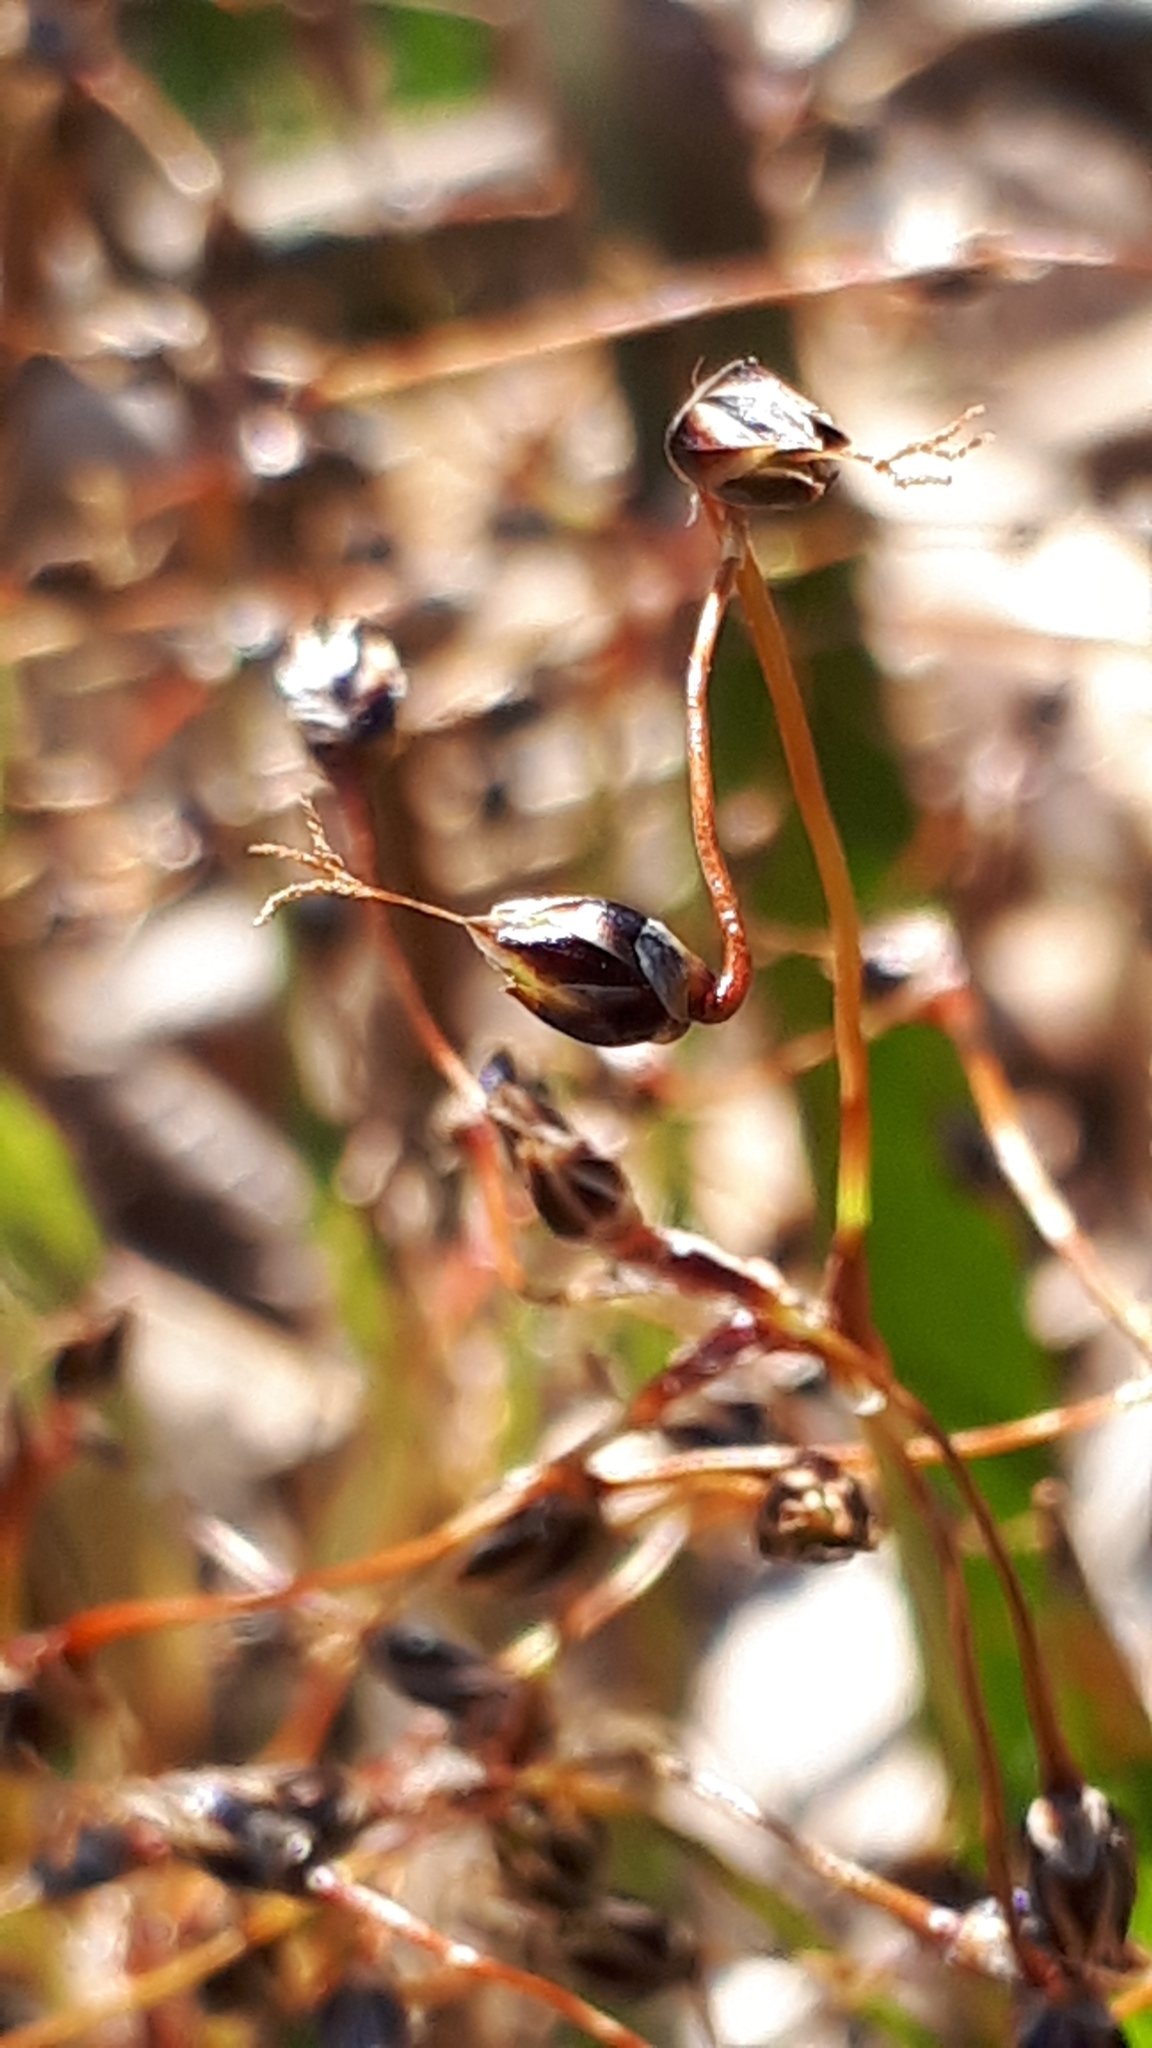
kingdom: Plantae
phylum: Tracheophyta
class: Liliopsida
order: Poales
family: Juncaceae
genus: Luzula
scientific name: Luzula pilosa
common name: Hairy wood-rush
